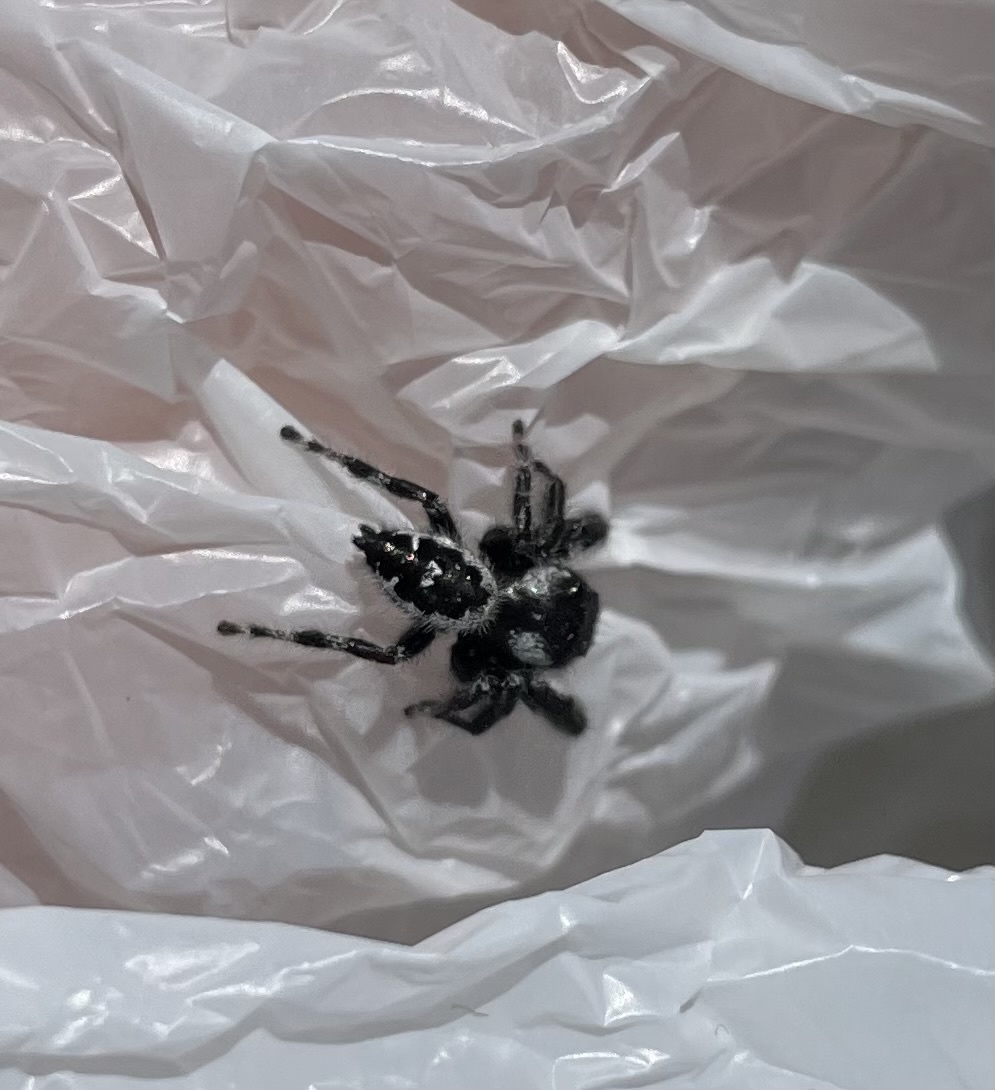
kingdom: Animalia
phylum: Arthropoda
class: Arachnida
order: Araneae
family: Salticidae
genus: Phidippus
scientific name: Phidippus audax
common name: Bold jumper
